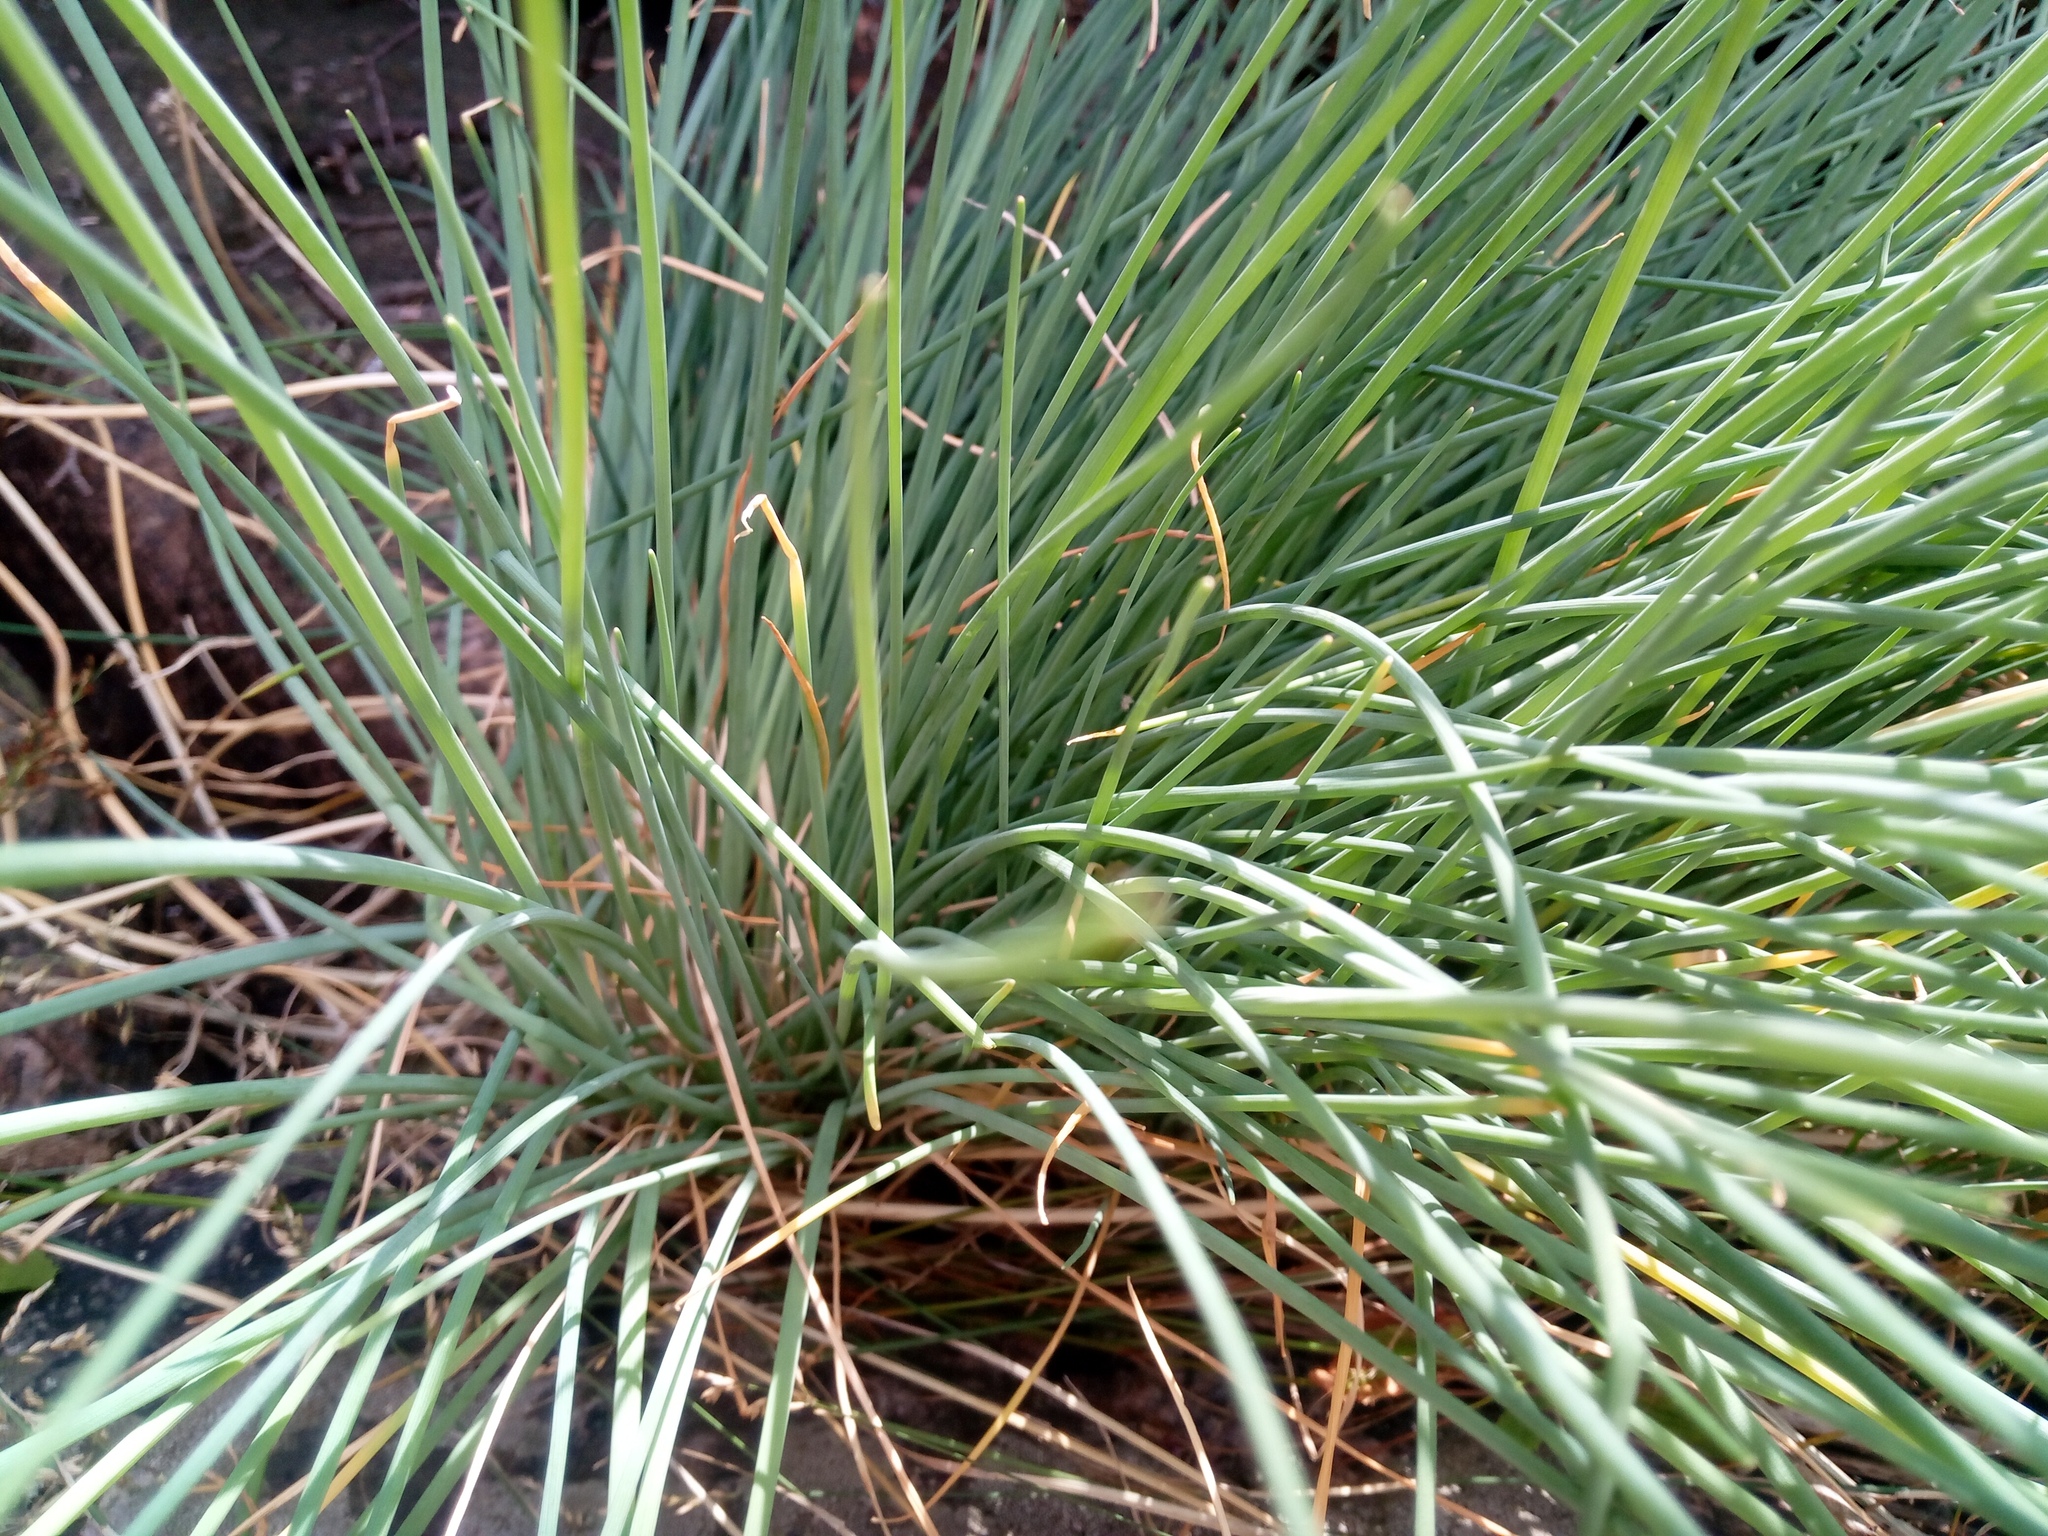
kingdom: Plantae
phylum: Tracheophyta
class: Liliopsida
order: Asparagales
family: Amaryllidaceae
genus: Allium
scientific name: Allium schoenoprasum
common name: Chives
